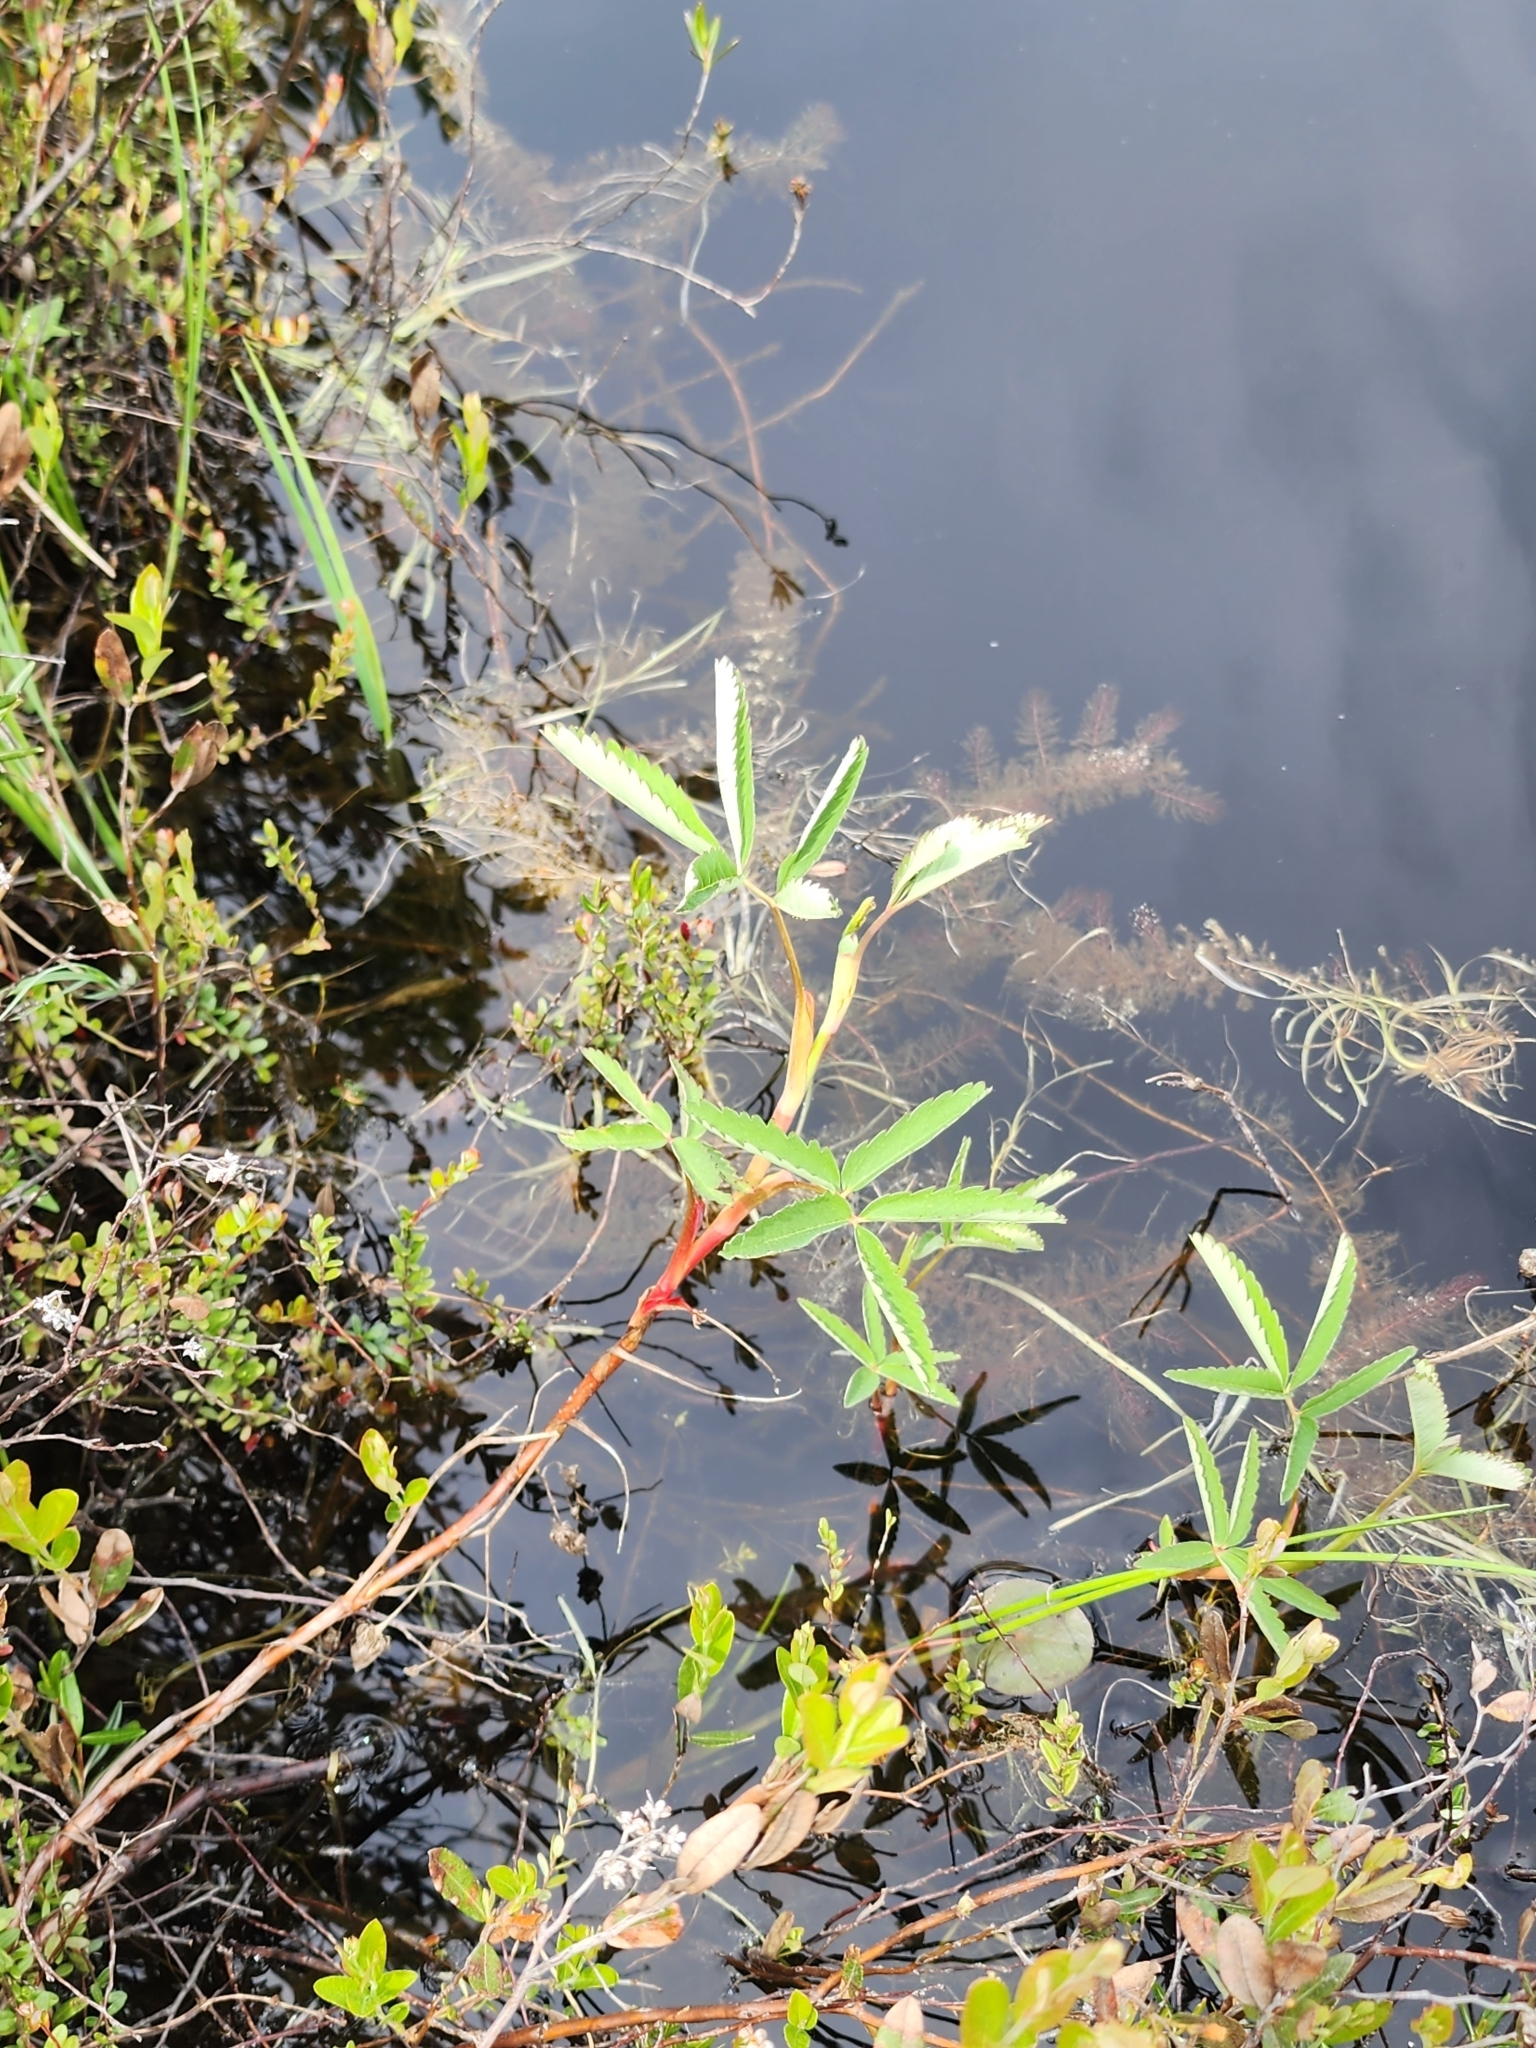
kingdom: Plantae
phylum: Tracheophyta
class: Magnoliopsida
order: Rosales
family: Rosaceae
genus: Comarum
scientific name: Comarum palustre
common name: Marsh cinquefoil
